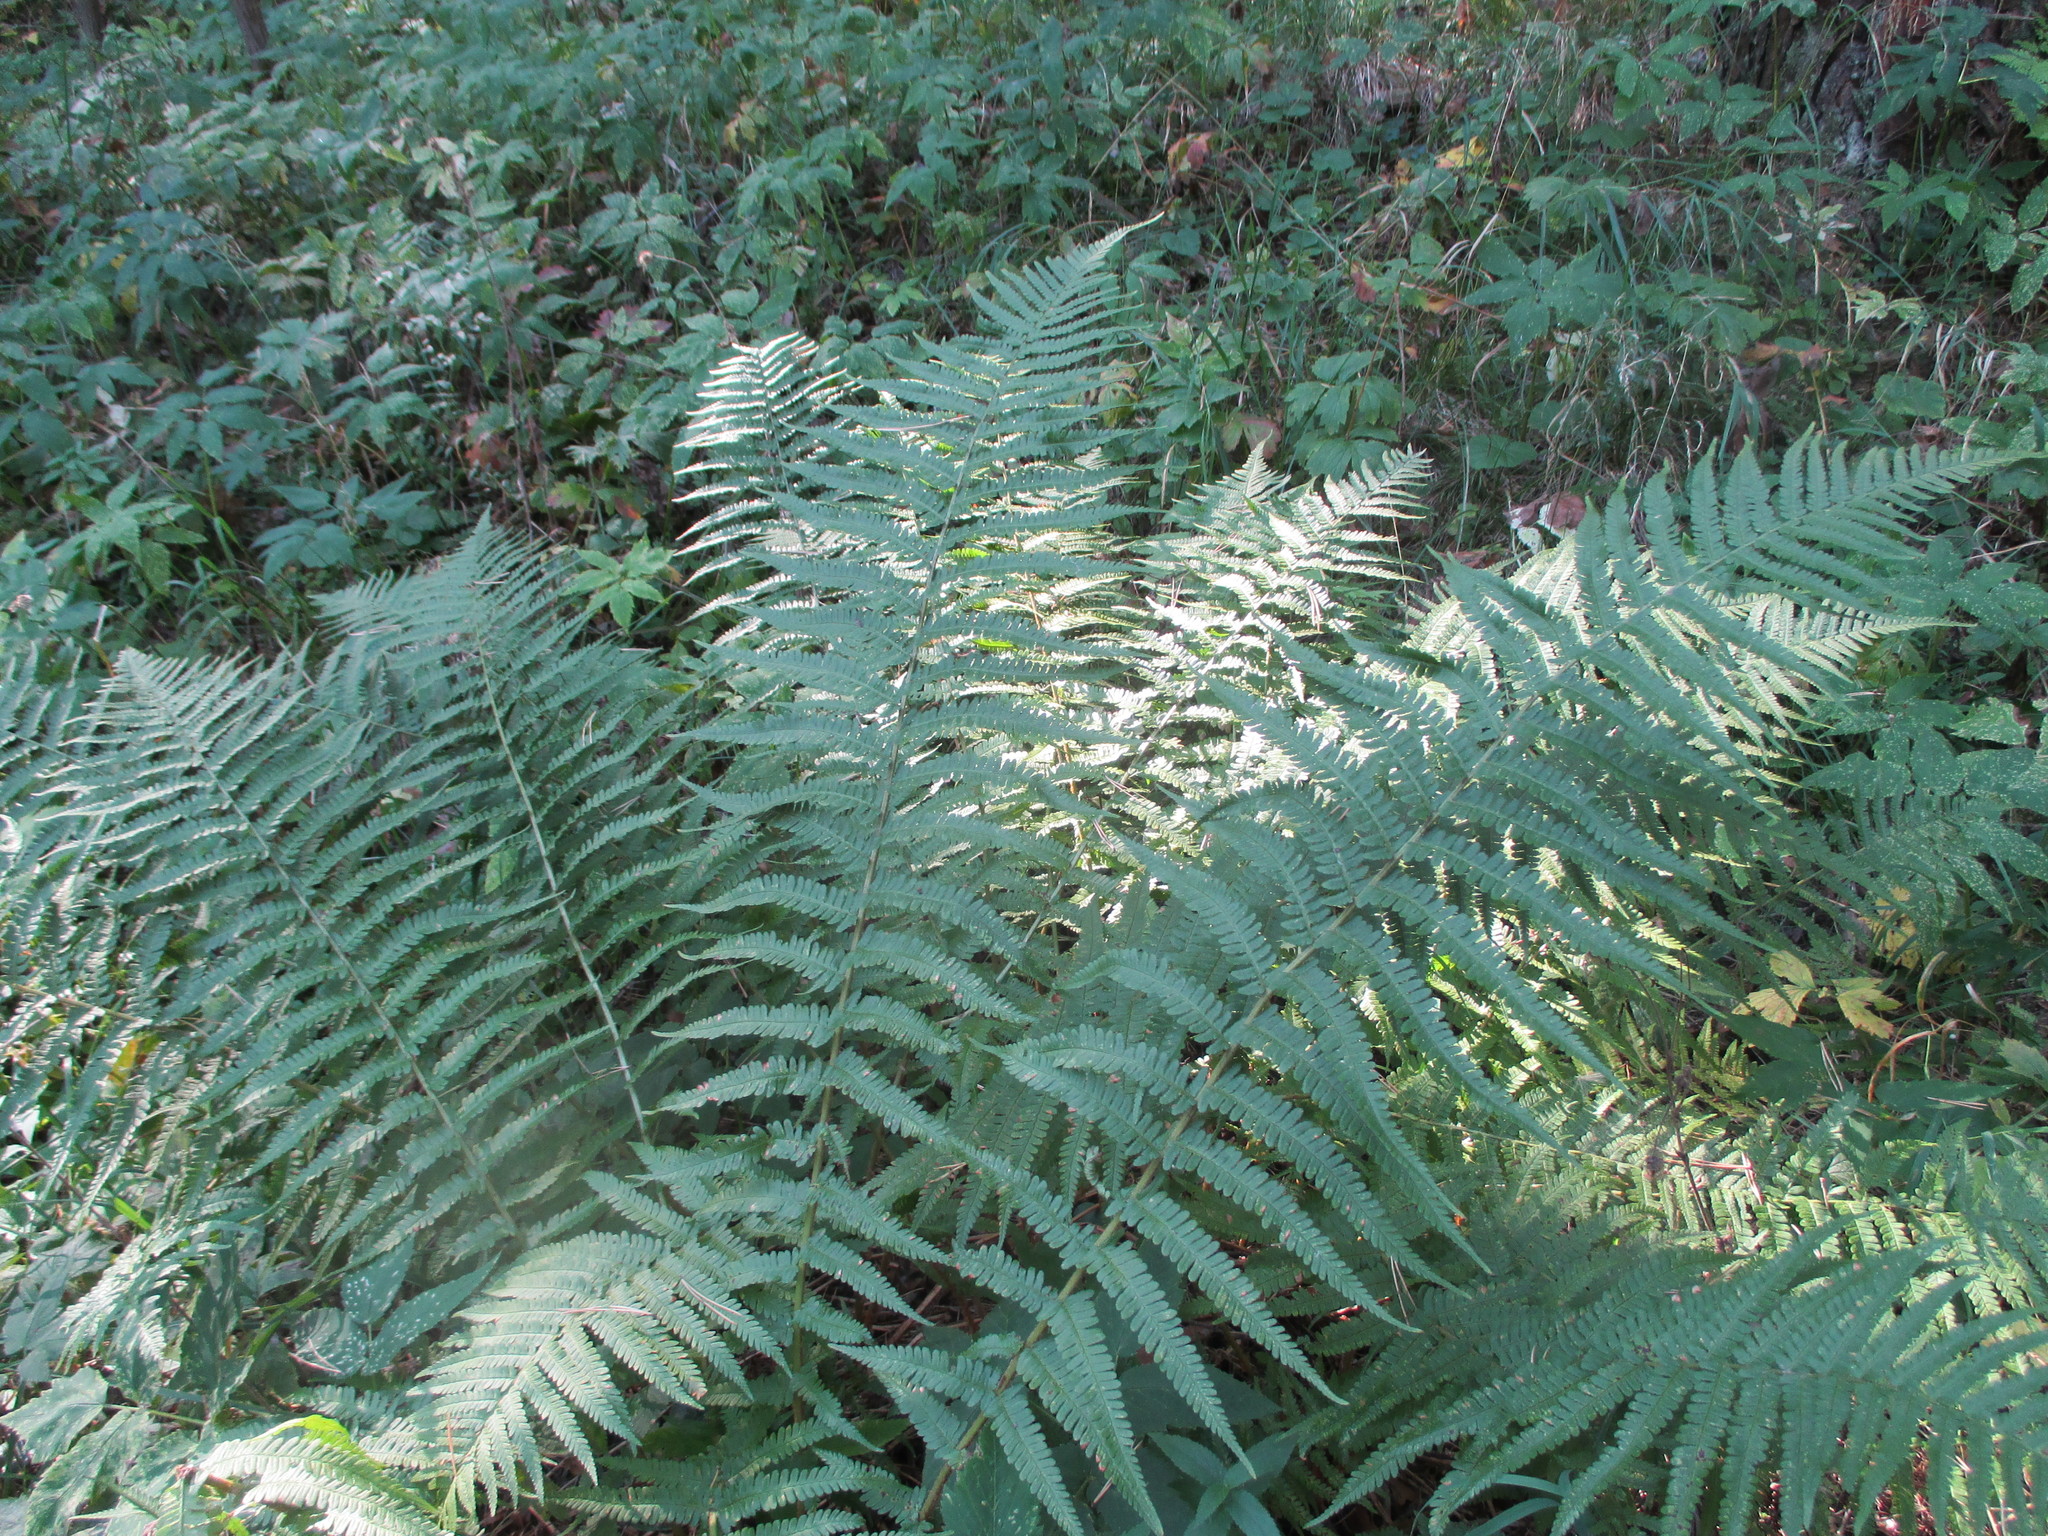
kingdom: Plantae
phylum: Tracheophyta
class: Polypodiopsida
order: Polypodiales
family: Dryopteridaceae
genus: Dryopteris
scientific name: Dryopteris filix-mas
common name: Male fern
